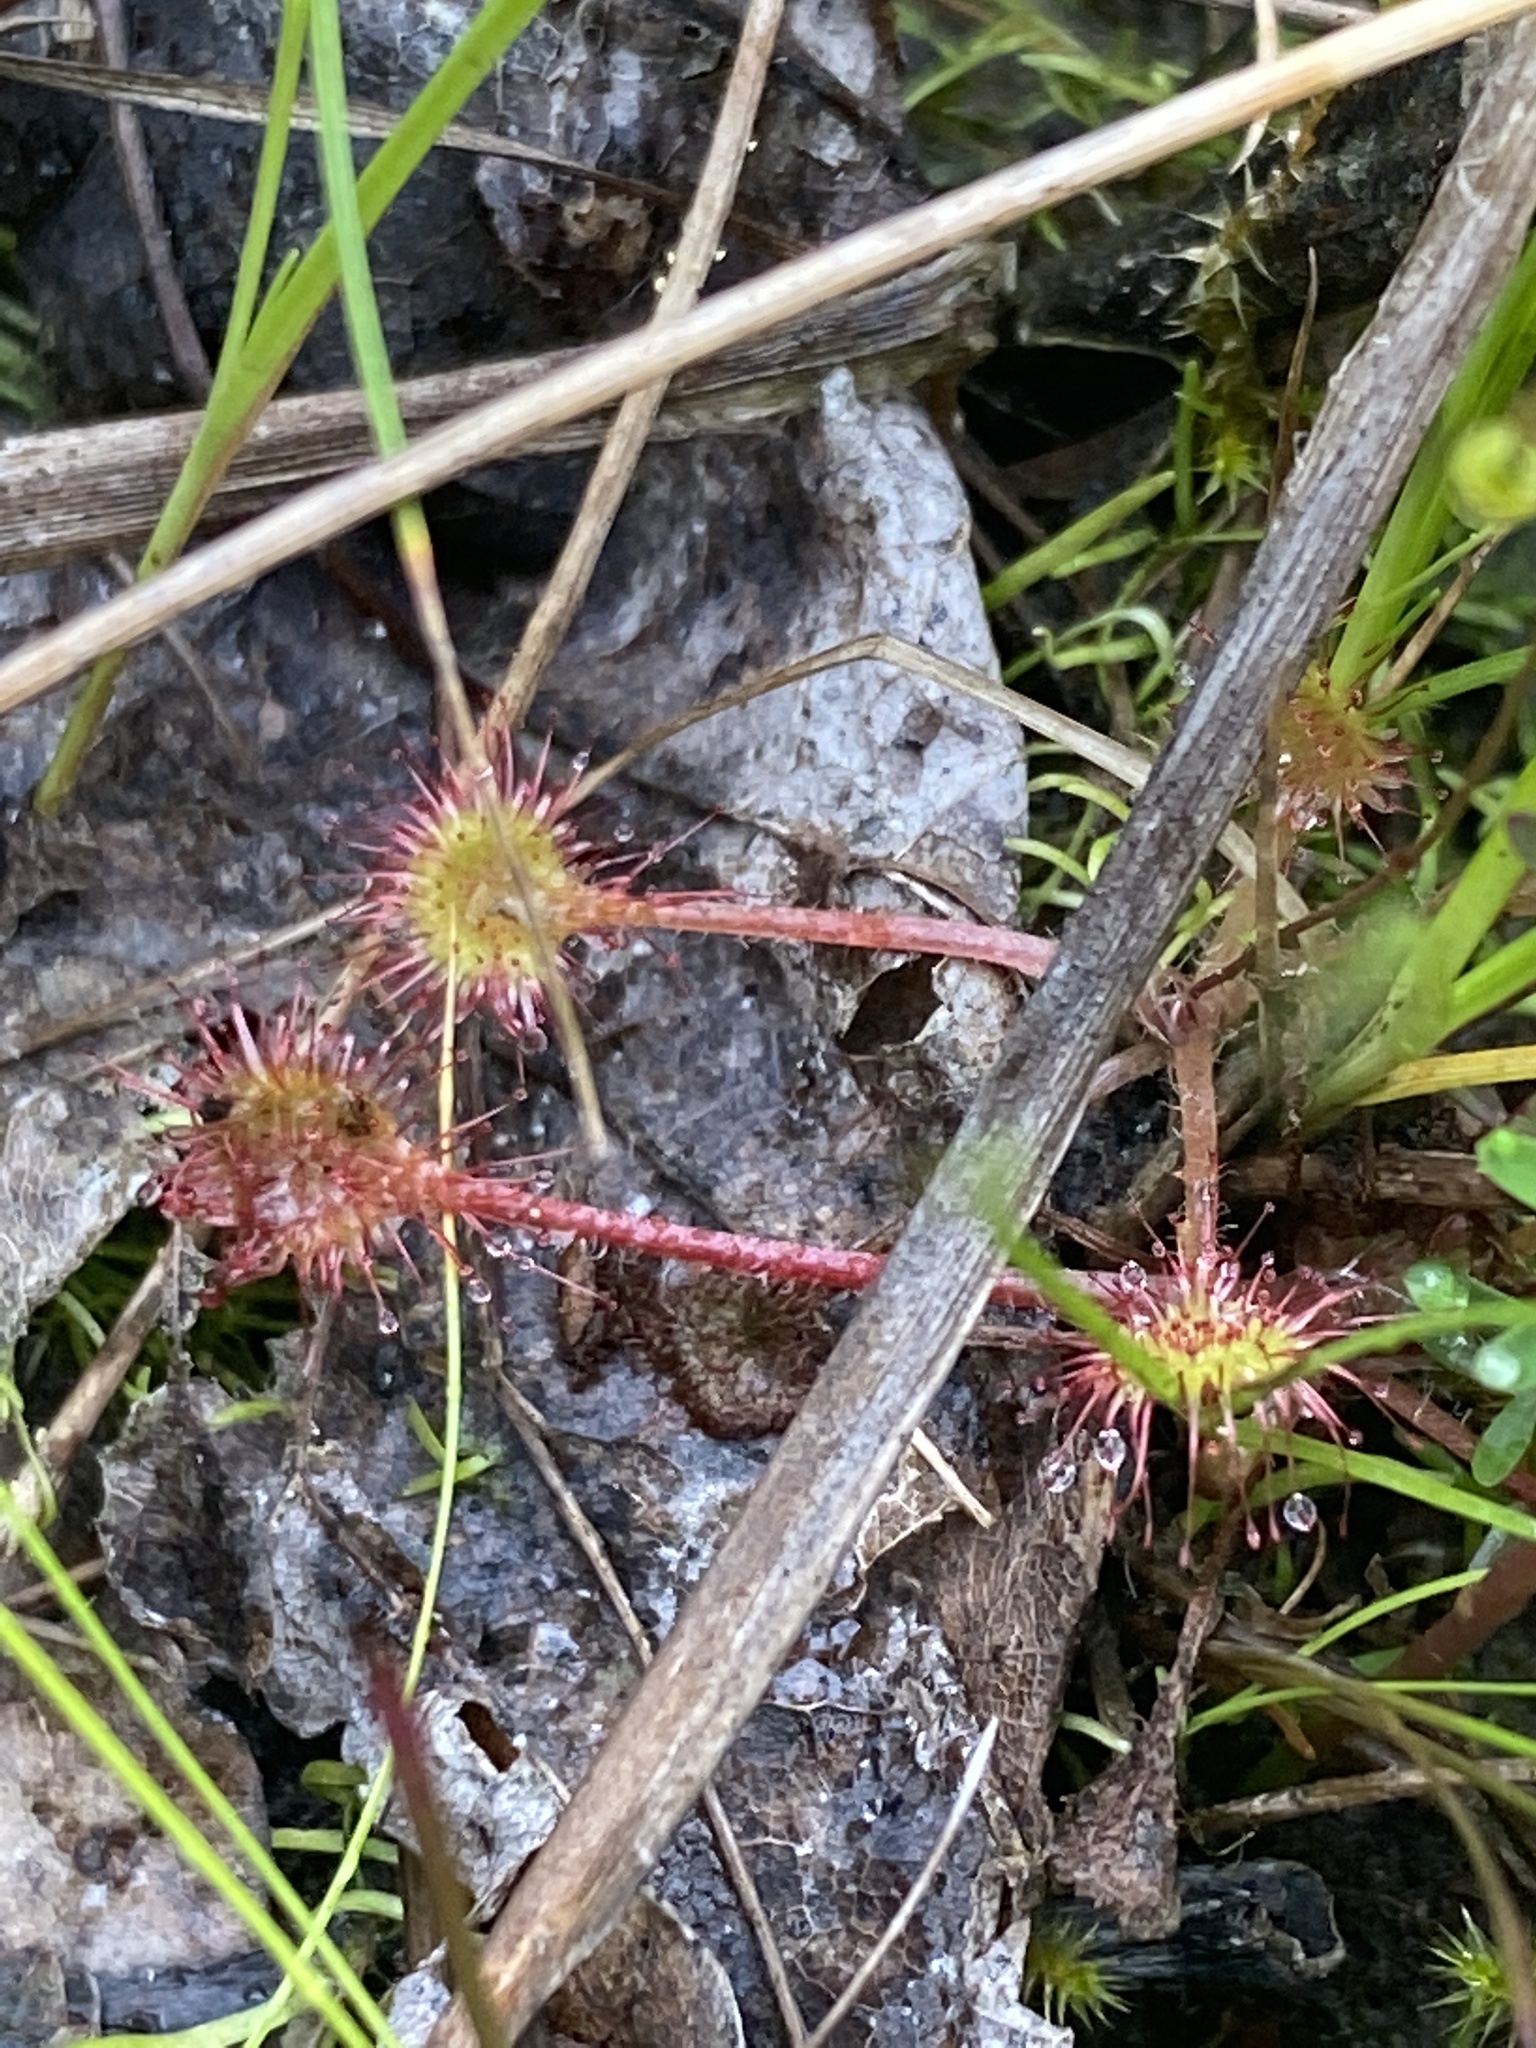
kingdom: Plantae
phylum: Tracheophyta
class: Magnoliopsida
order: Caryophyllales
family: Droseraceae
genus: Drosera
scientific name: Drosera rotundifolia
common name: Round-leaved sundew
